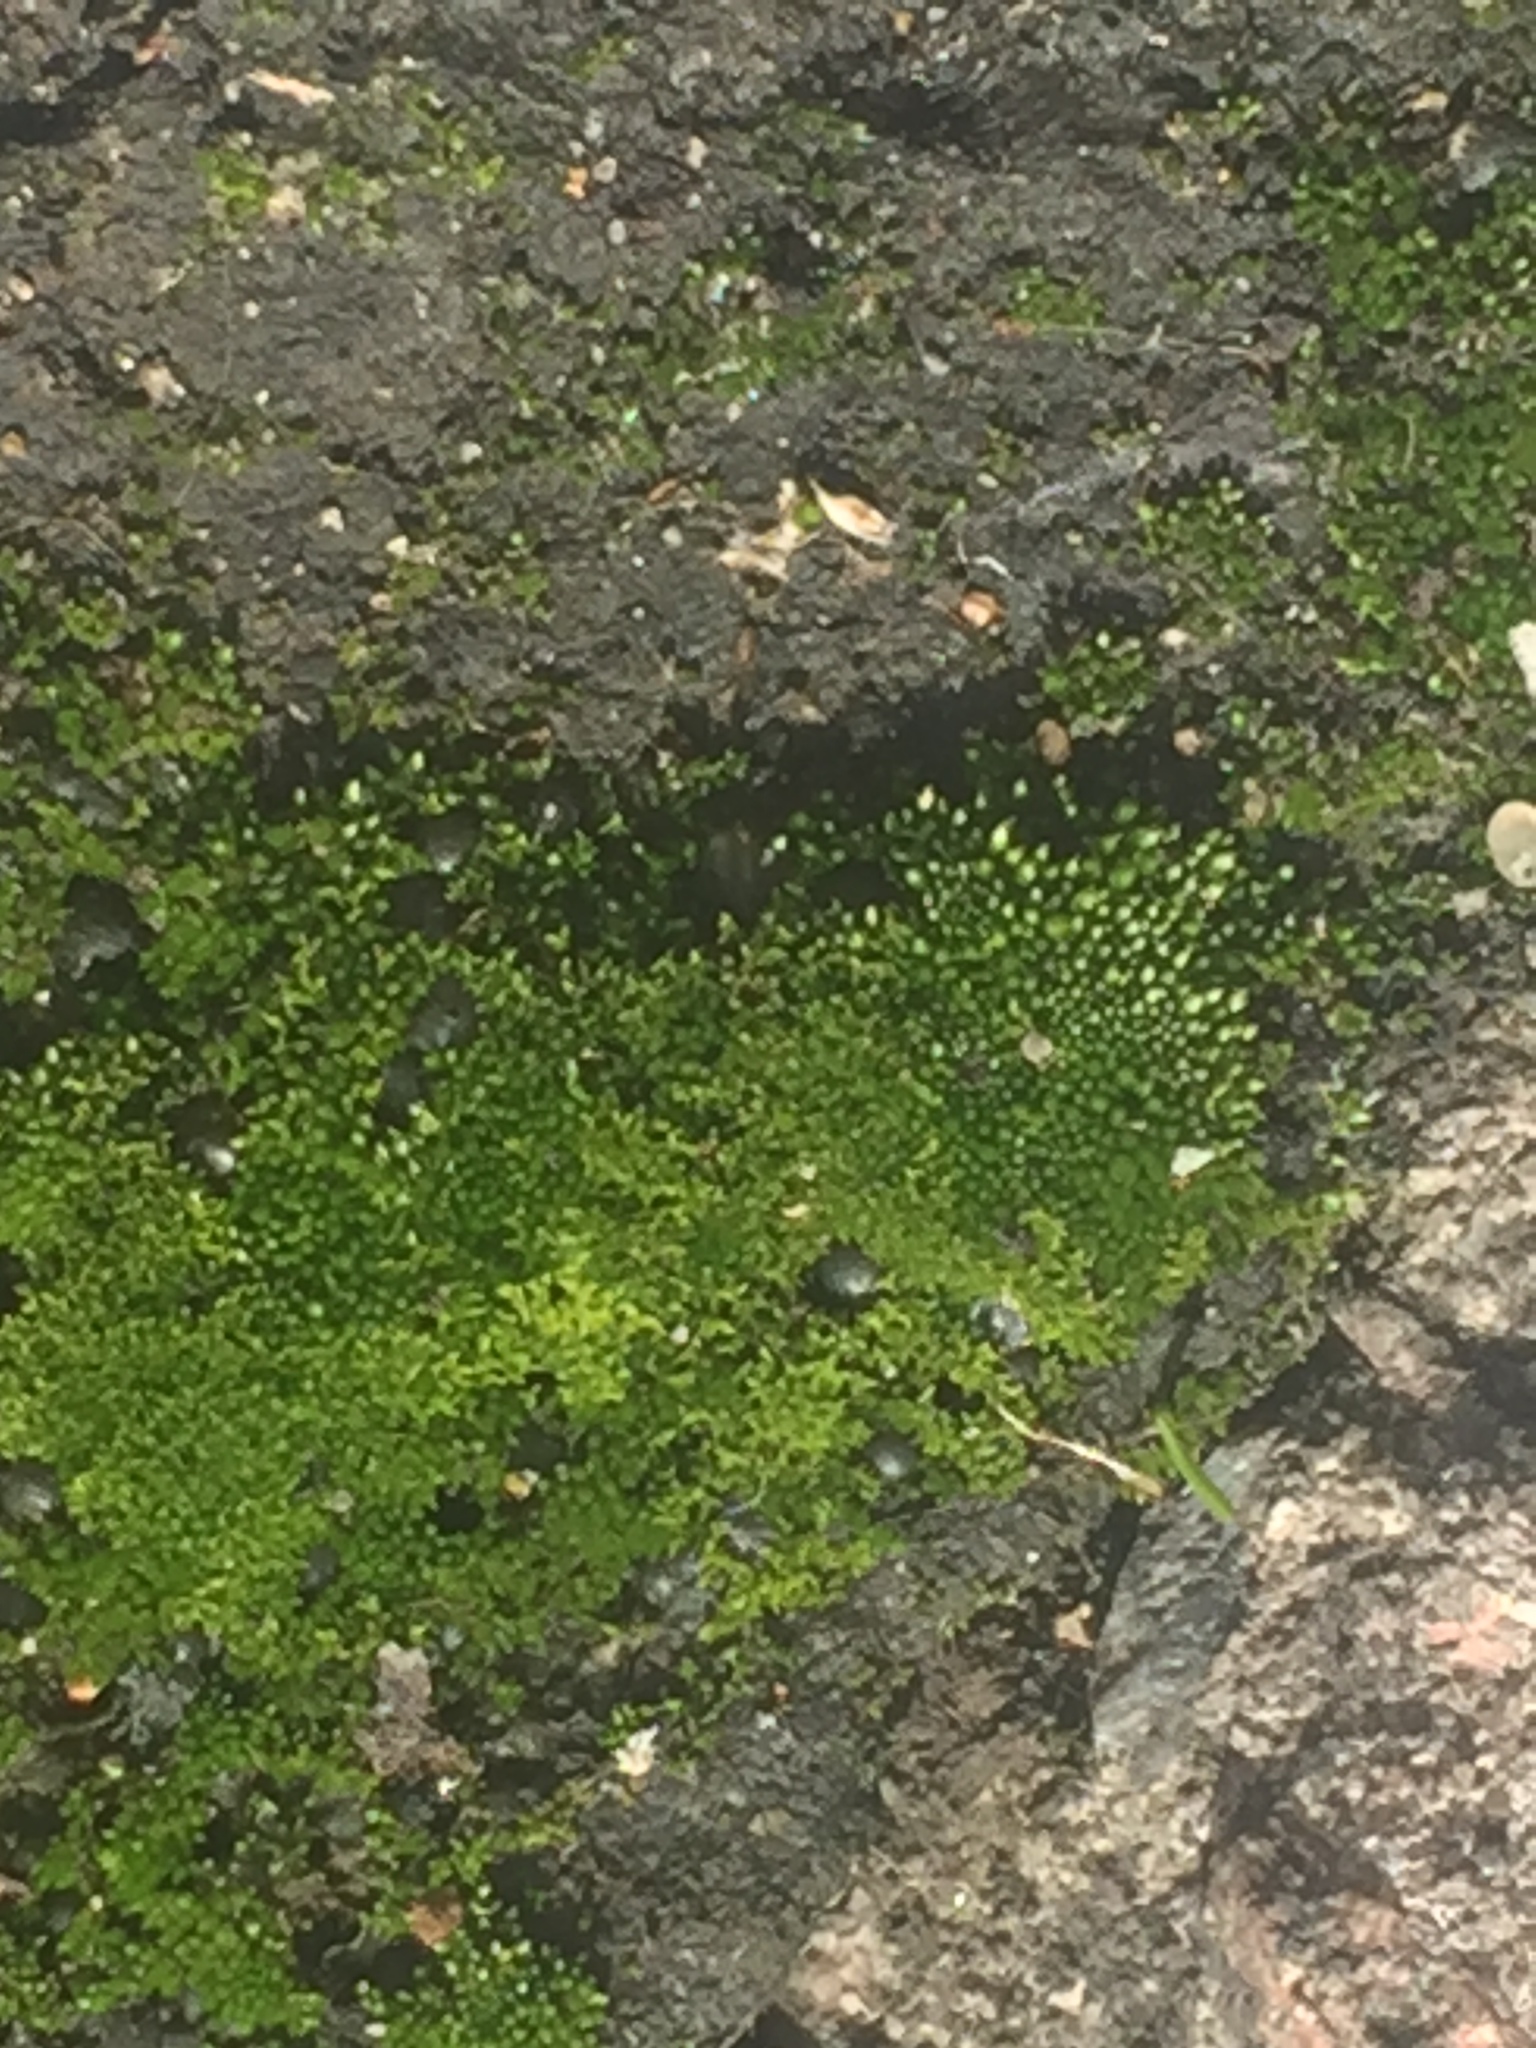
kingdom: Plantae
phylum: Bryophyta
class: Bryopsida
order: Bryales
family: Bryaceae
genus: Bryum
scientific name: Bryum argenteum
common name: Silver-moss
